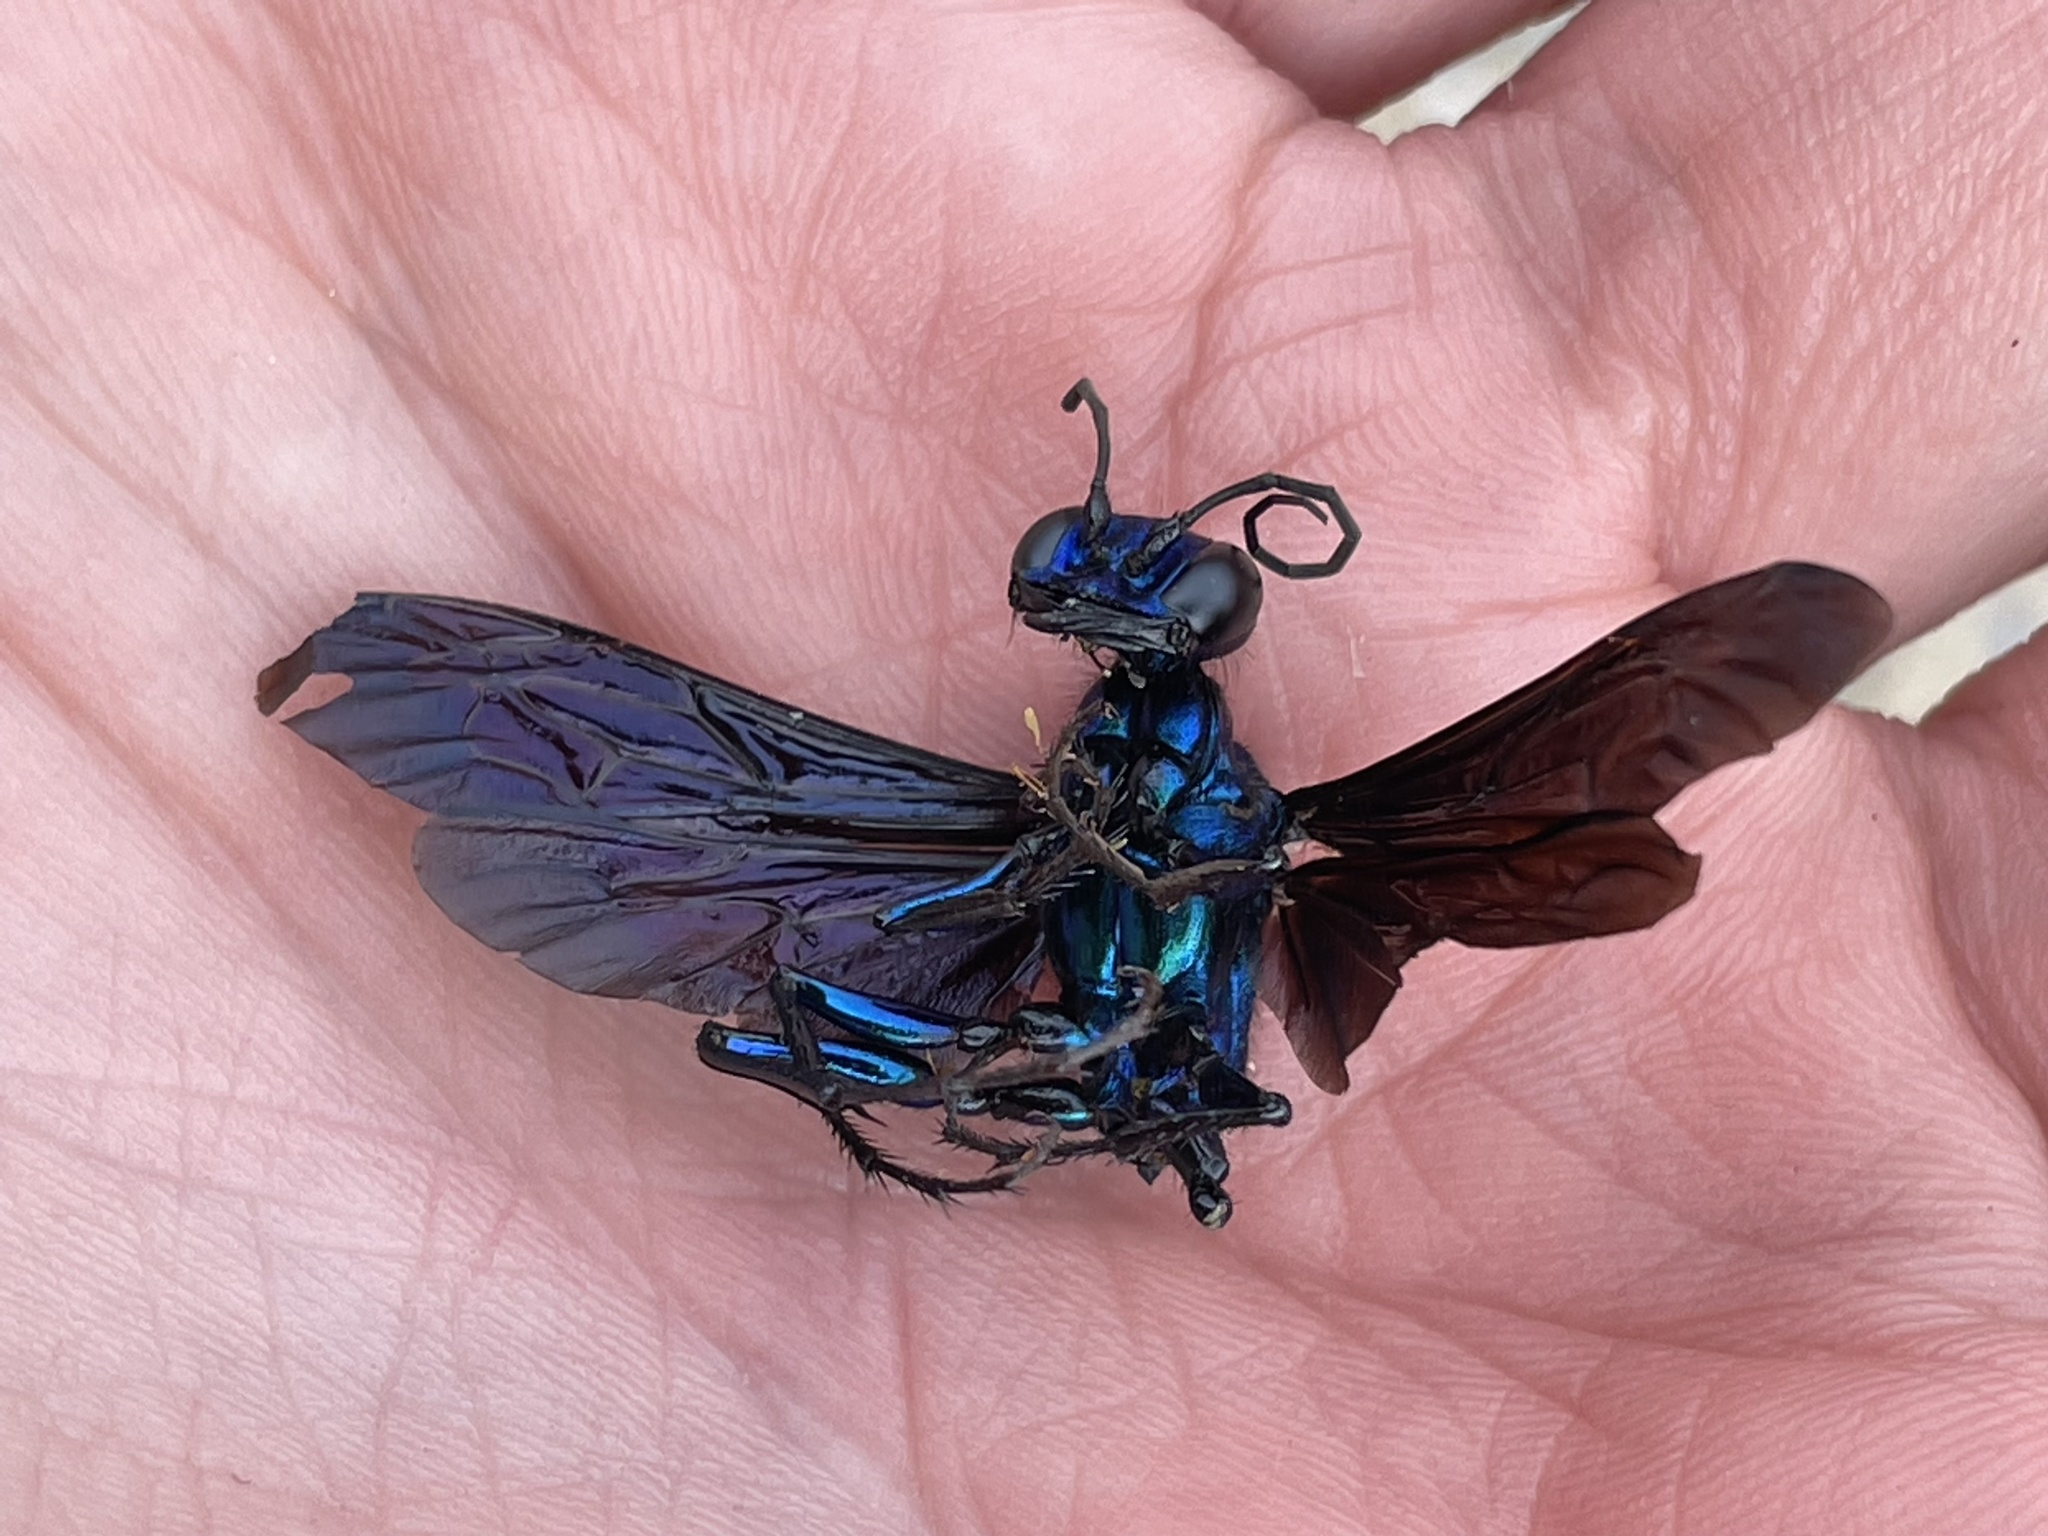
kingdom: Animalia
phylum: Arthropoda
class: Insecta
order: Hymenoptera
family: Sphecidae
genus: Chlorion
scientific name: Chlorion aerarium
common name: Steel-blue cricket hunter
